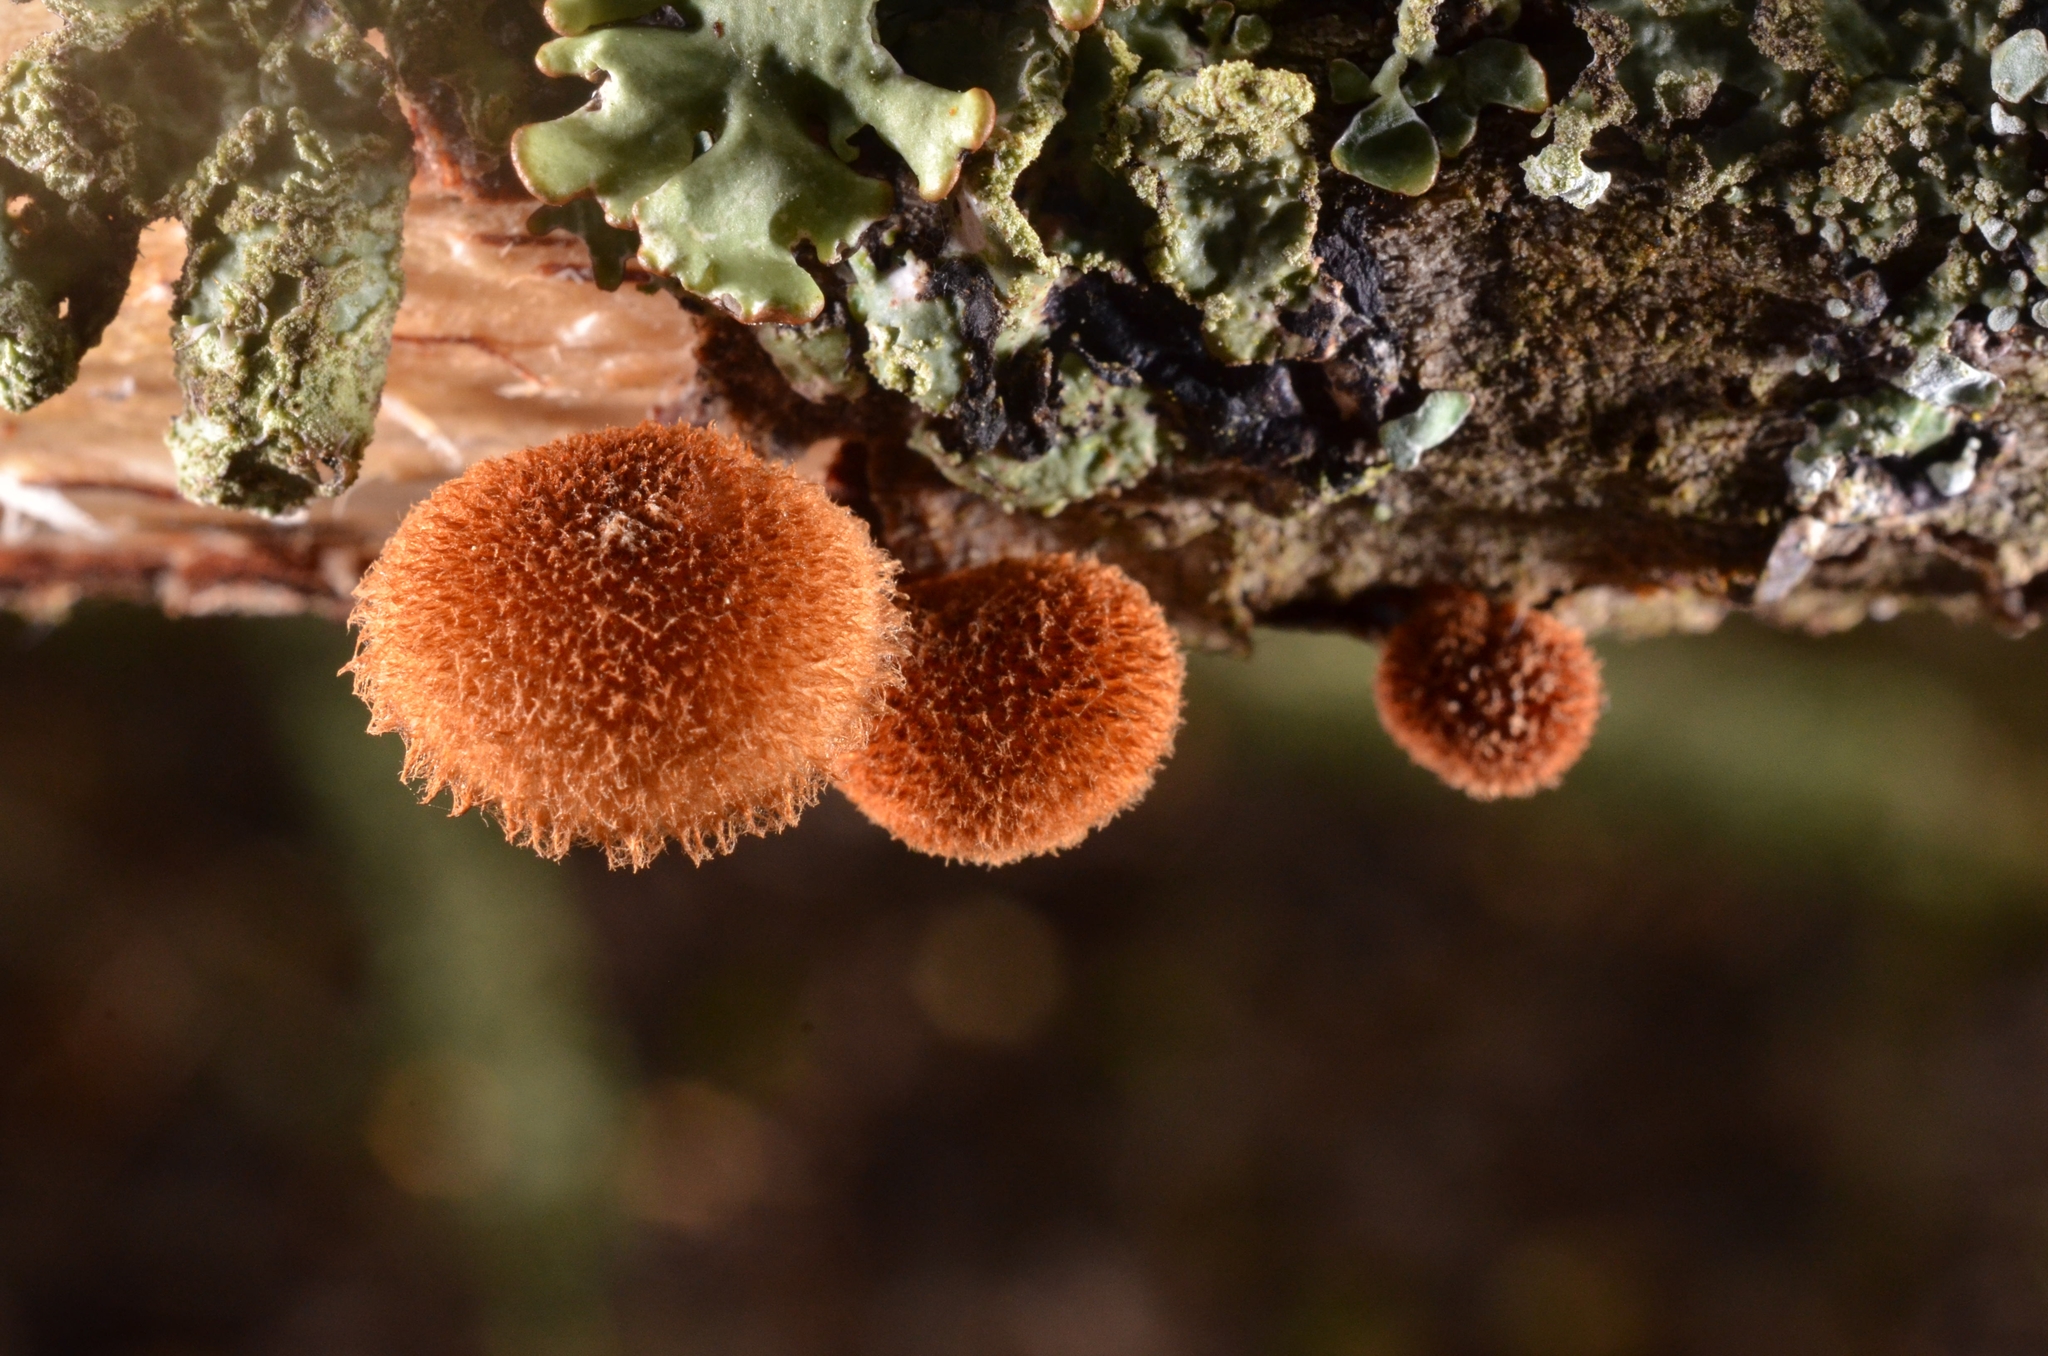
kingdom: Fungi
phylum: Basidiomycota
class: Agaricomycetes
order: Agaricales
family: Tubariaceae
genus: Phaeomarasmius
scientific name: Phaeomarasmius erinaceus
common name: Hedgehog scalycap
